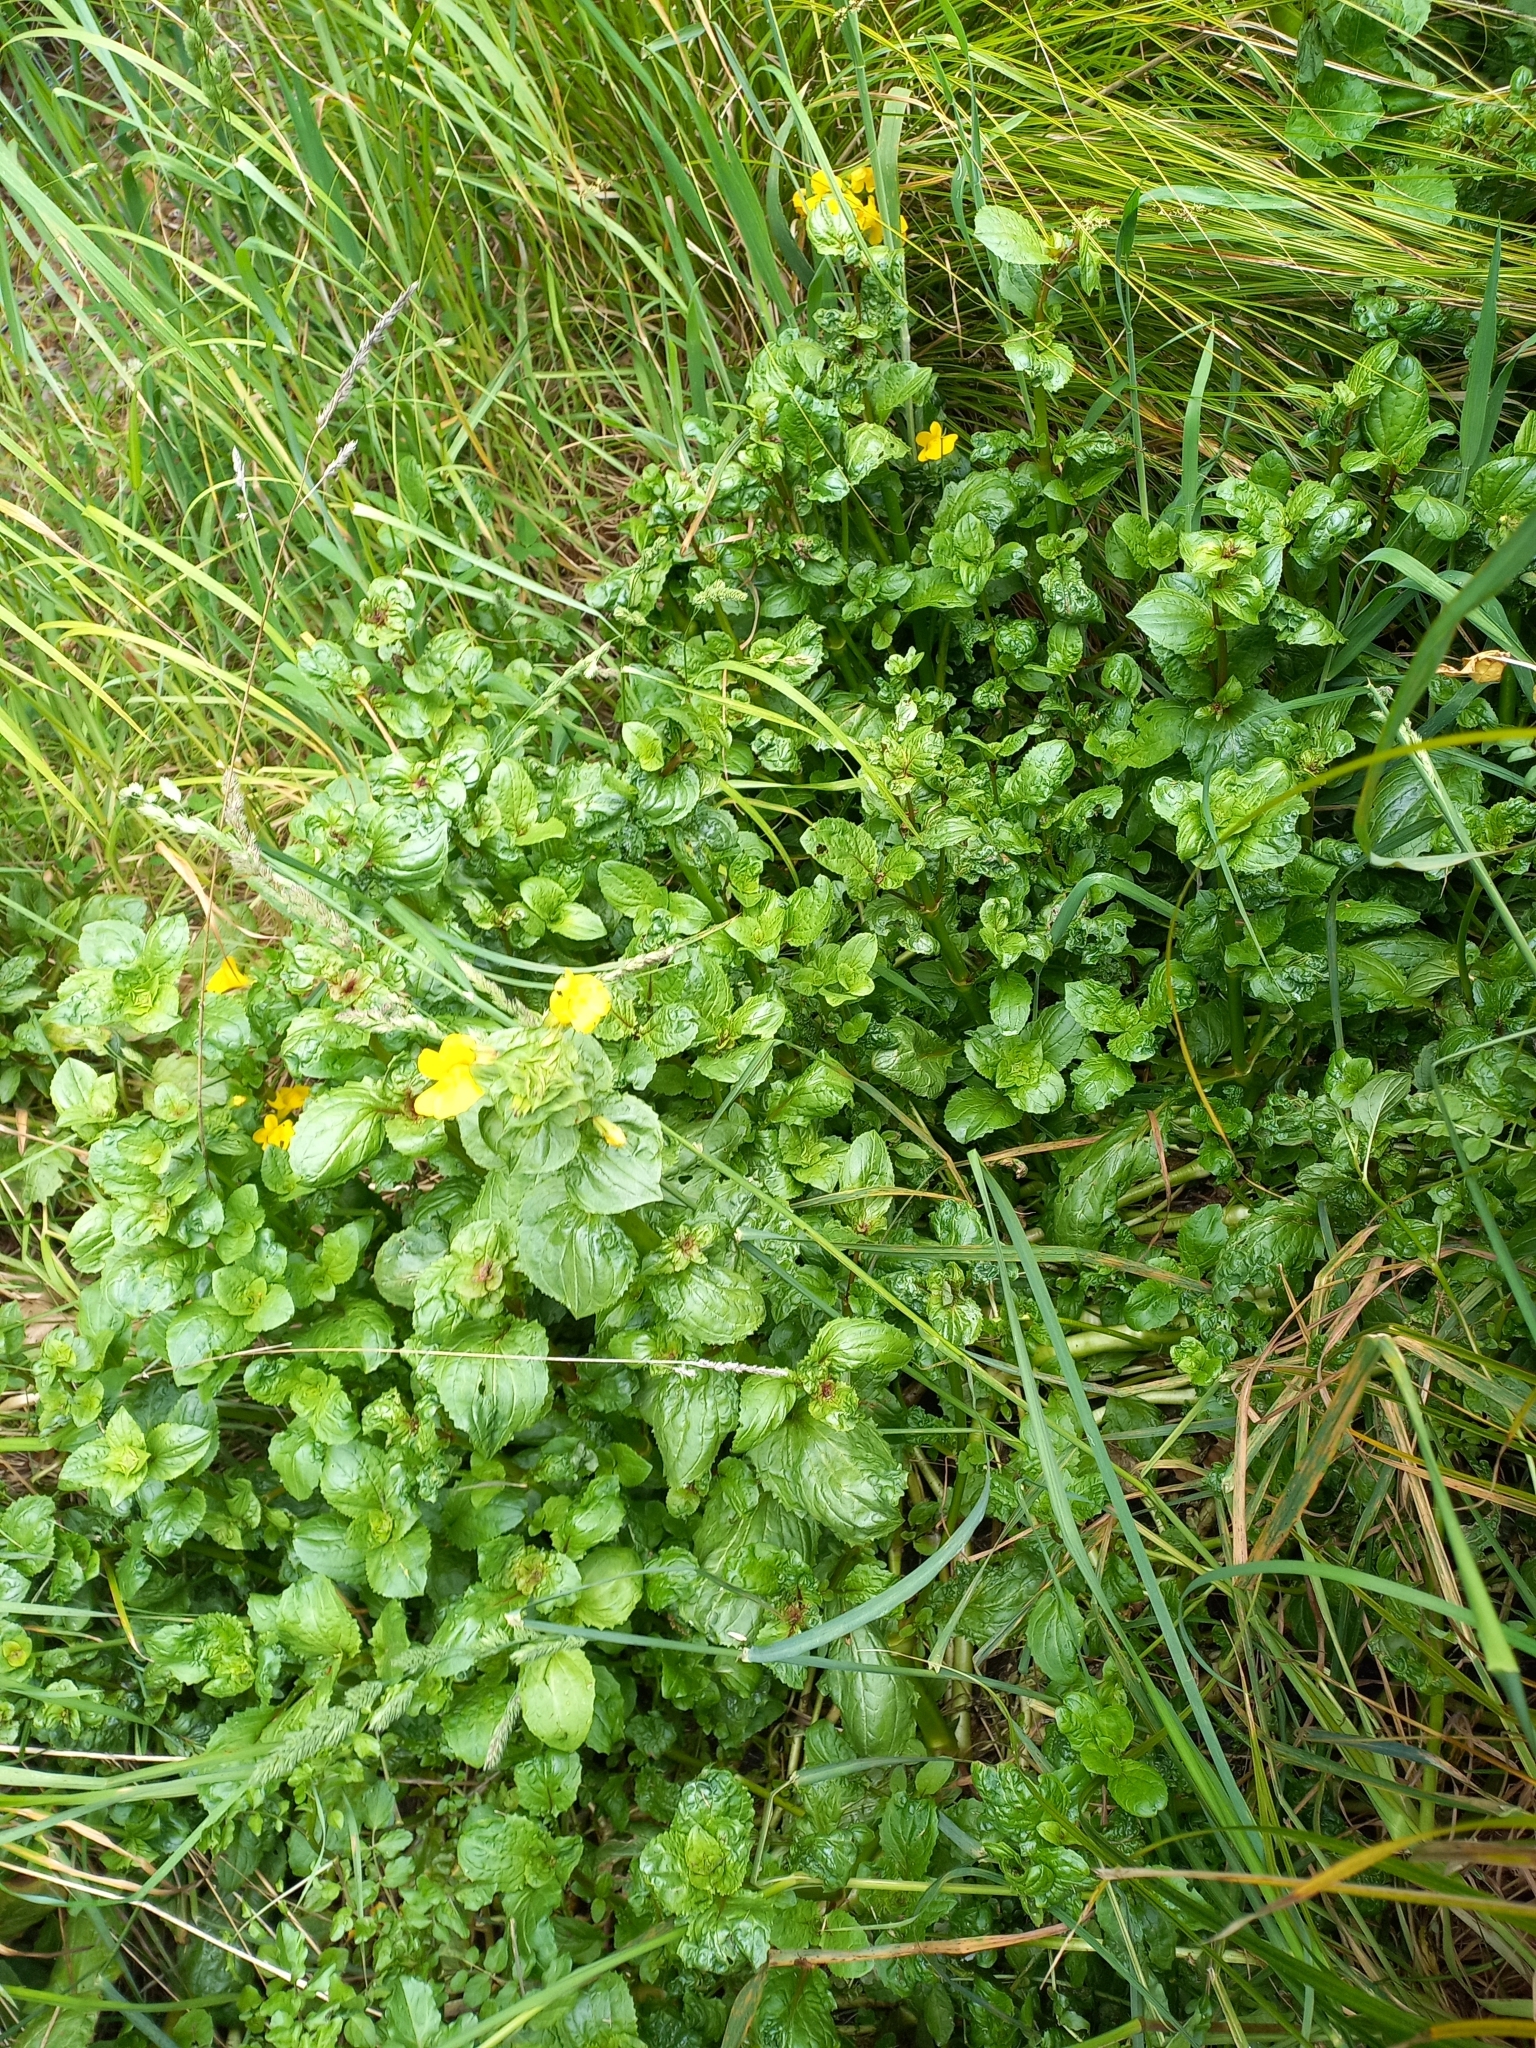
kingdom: Plantae
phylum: Tracheophyta
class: Magnoliopsida
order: Lamiales
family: Phrymaceae
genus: Erythranthe
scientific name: Erythranthe guttata
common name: Monkeyflower
